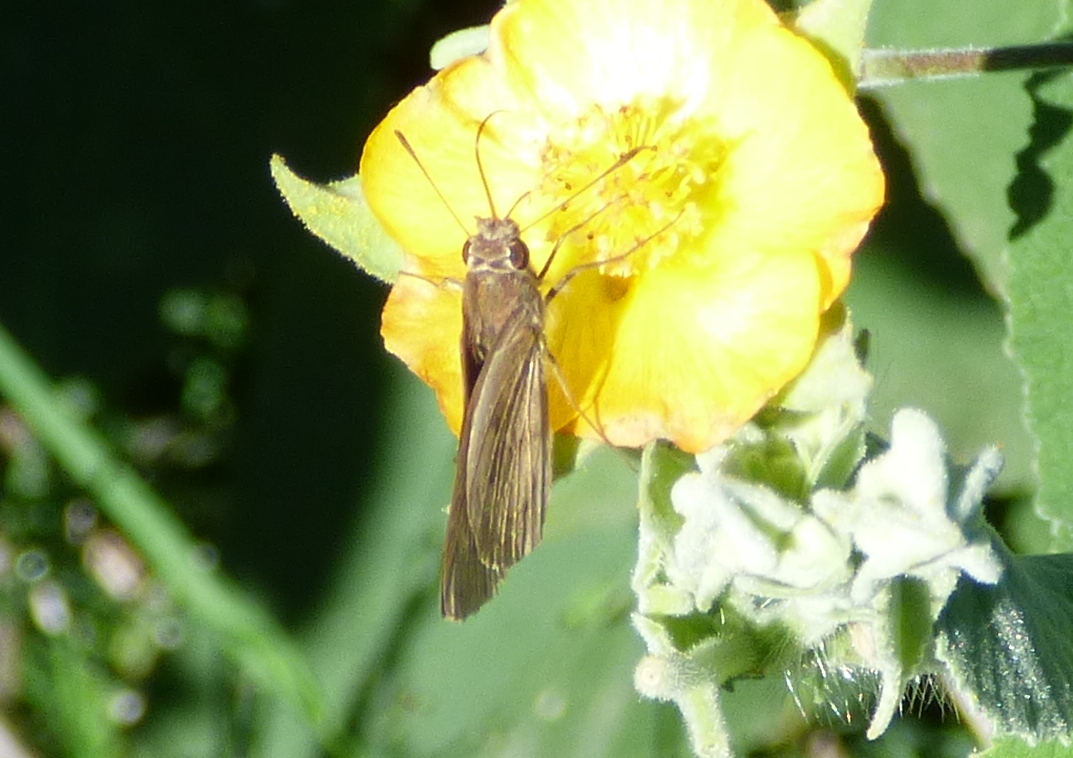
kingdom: Animalia
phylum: Arthropoda
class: Insecta
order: Lepidoptera
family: Hesperiidae
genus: Cymaenes
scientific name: Cymaenes gisca
